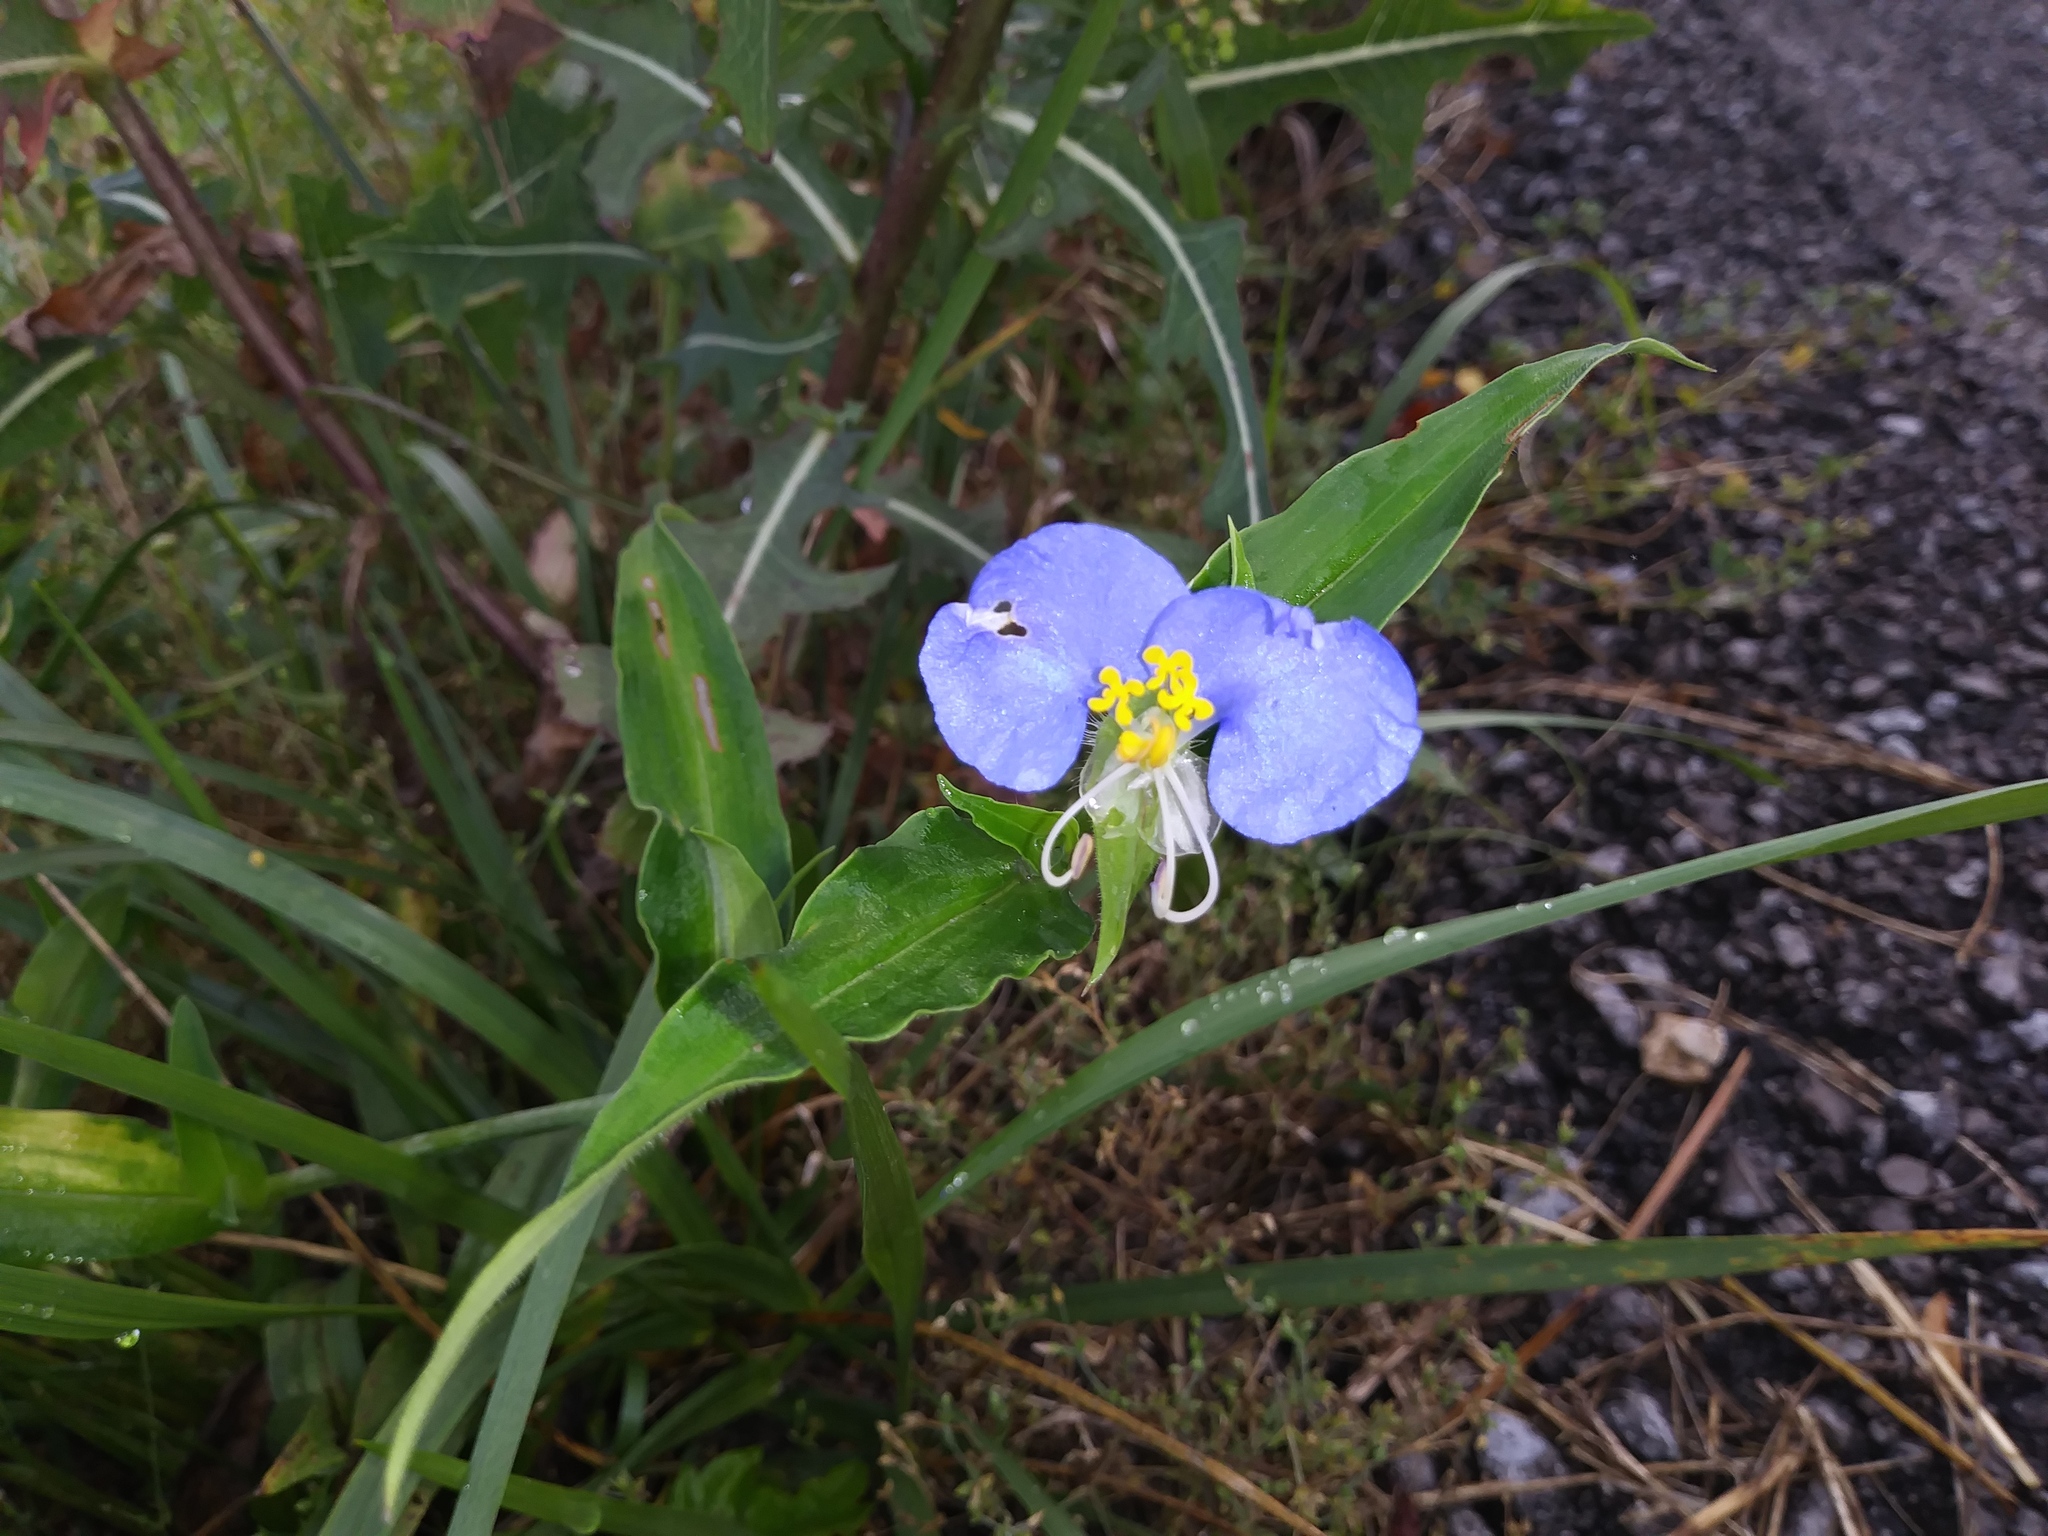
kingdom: Plantae
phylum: Tracheophyta
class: Liliopsida
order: Commelinales
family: Commelinaceae
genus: Commelina
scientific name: Commelina erecta
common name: Blousel blommetjie
